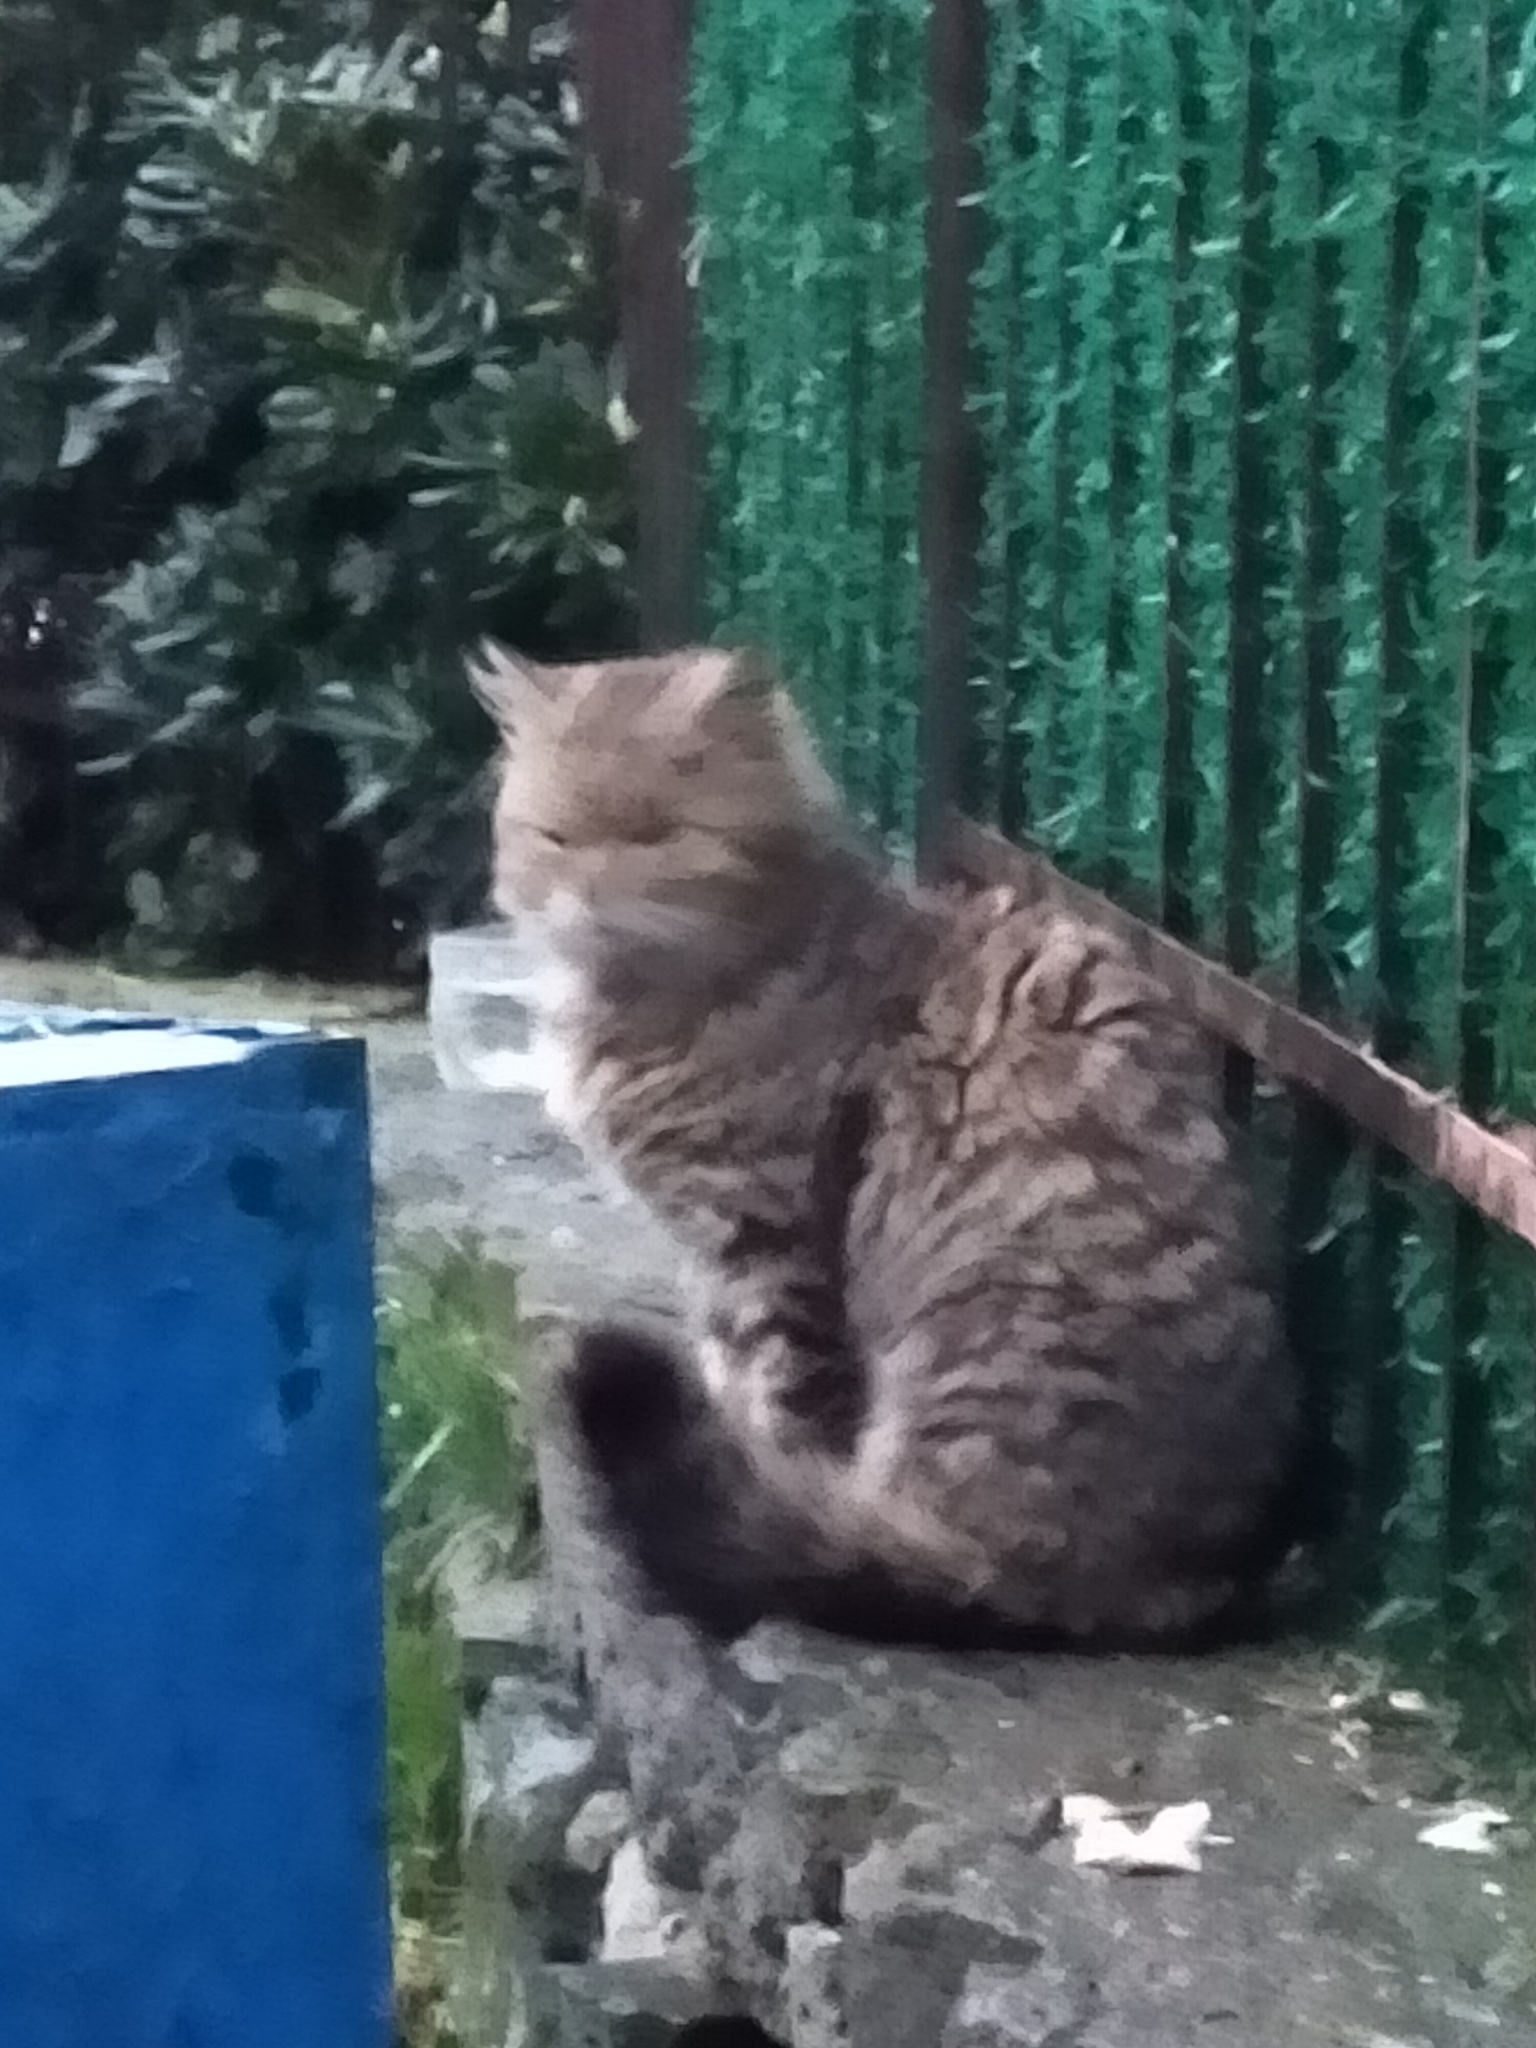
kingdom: Animalia
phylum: Chordata
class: Mammalia
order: Carnivora
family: Felidae
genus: Felis
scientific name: Felis catus
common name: Domestic cat
